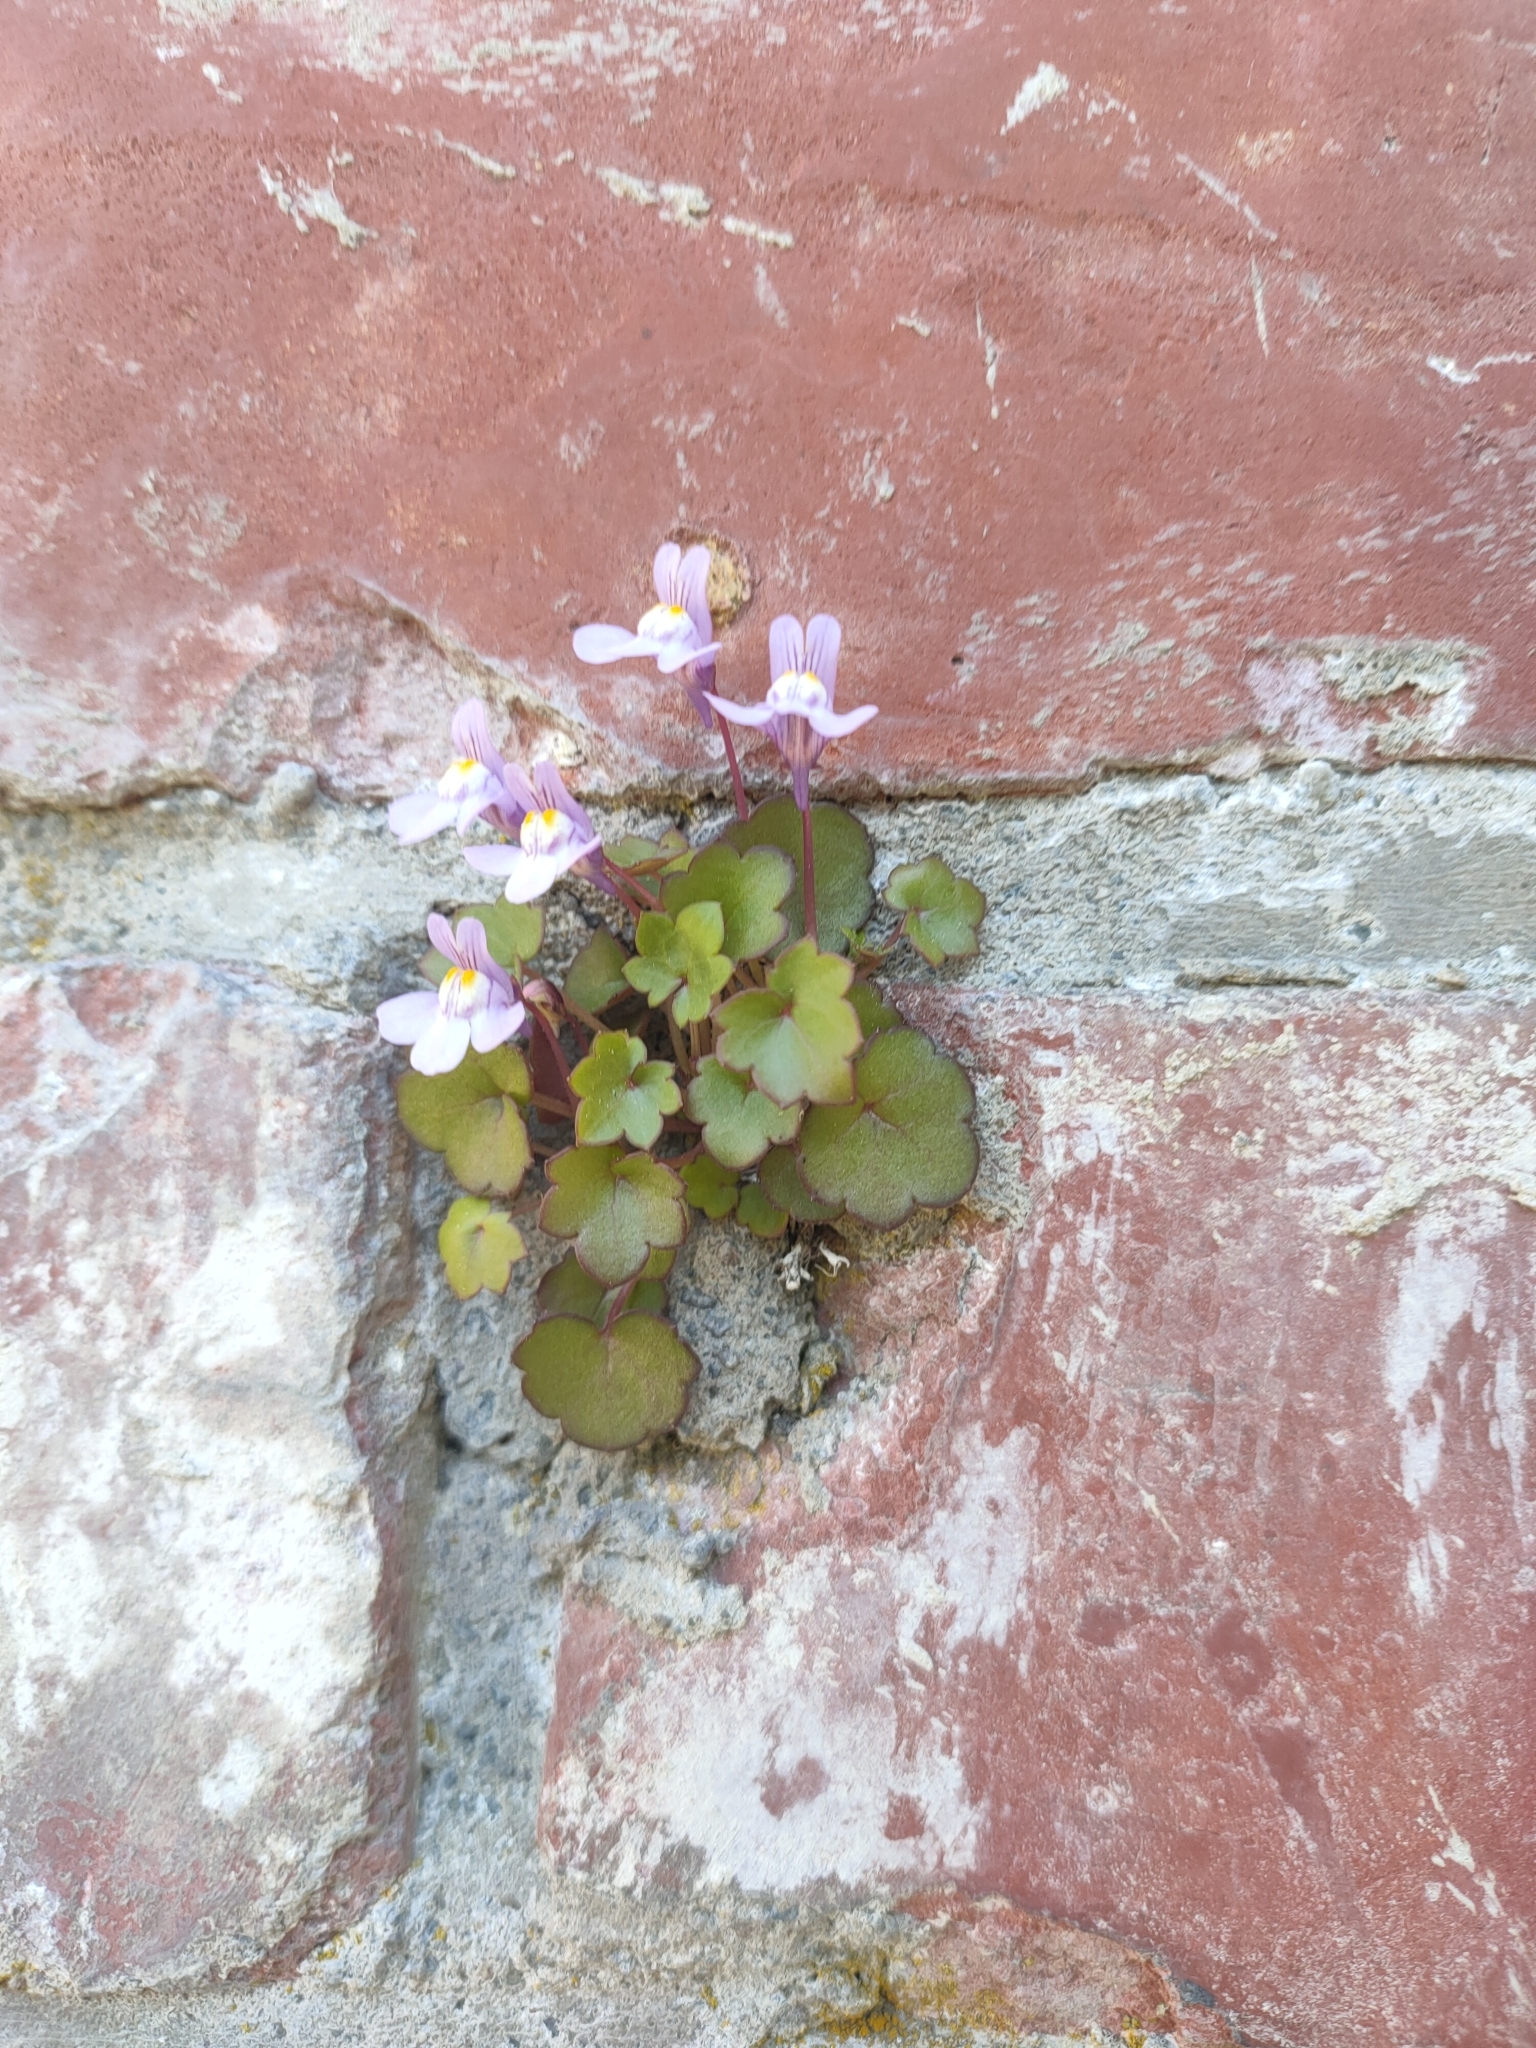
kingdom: Plantae
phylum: Tracheophyta
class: Magnoliopsida
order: Lamiales
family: Plantaginaceae
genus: Cymbalaria
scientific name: Cymbalaria muralis
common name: Ivy-leaved toadflax
